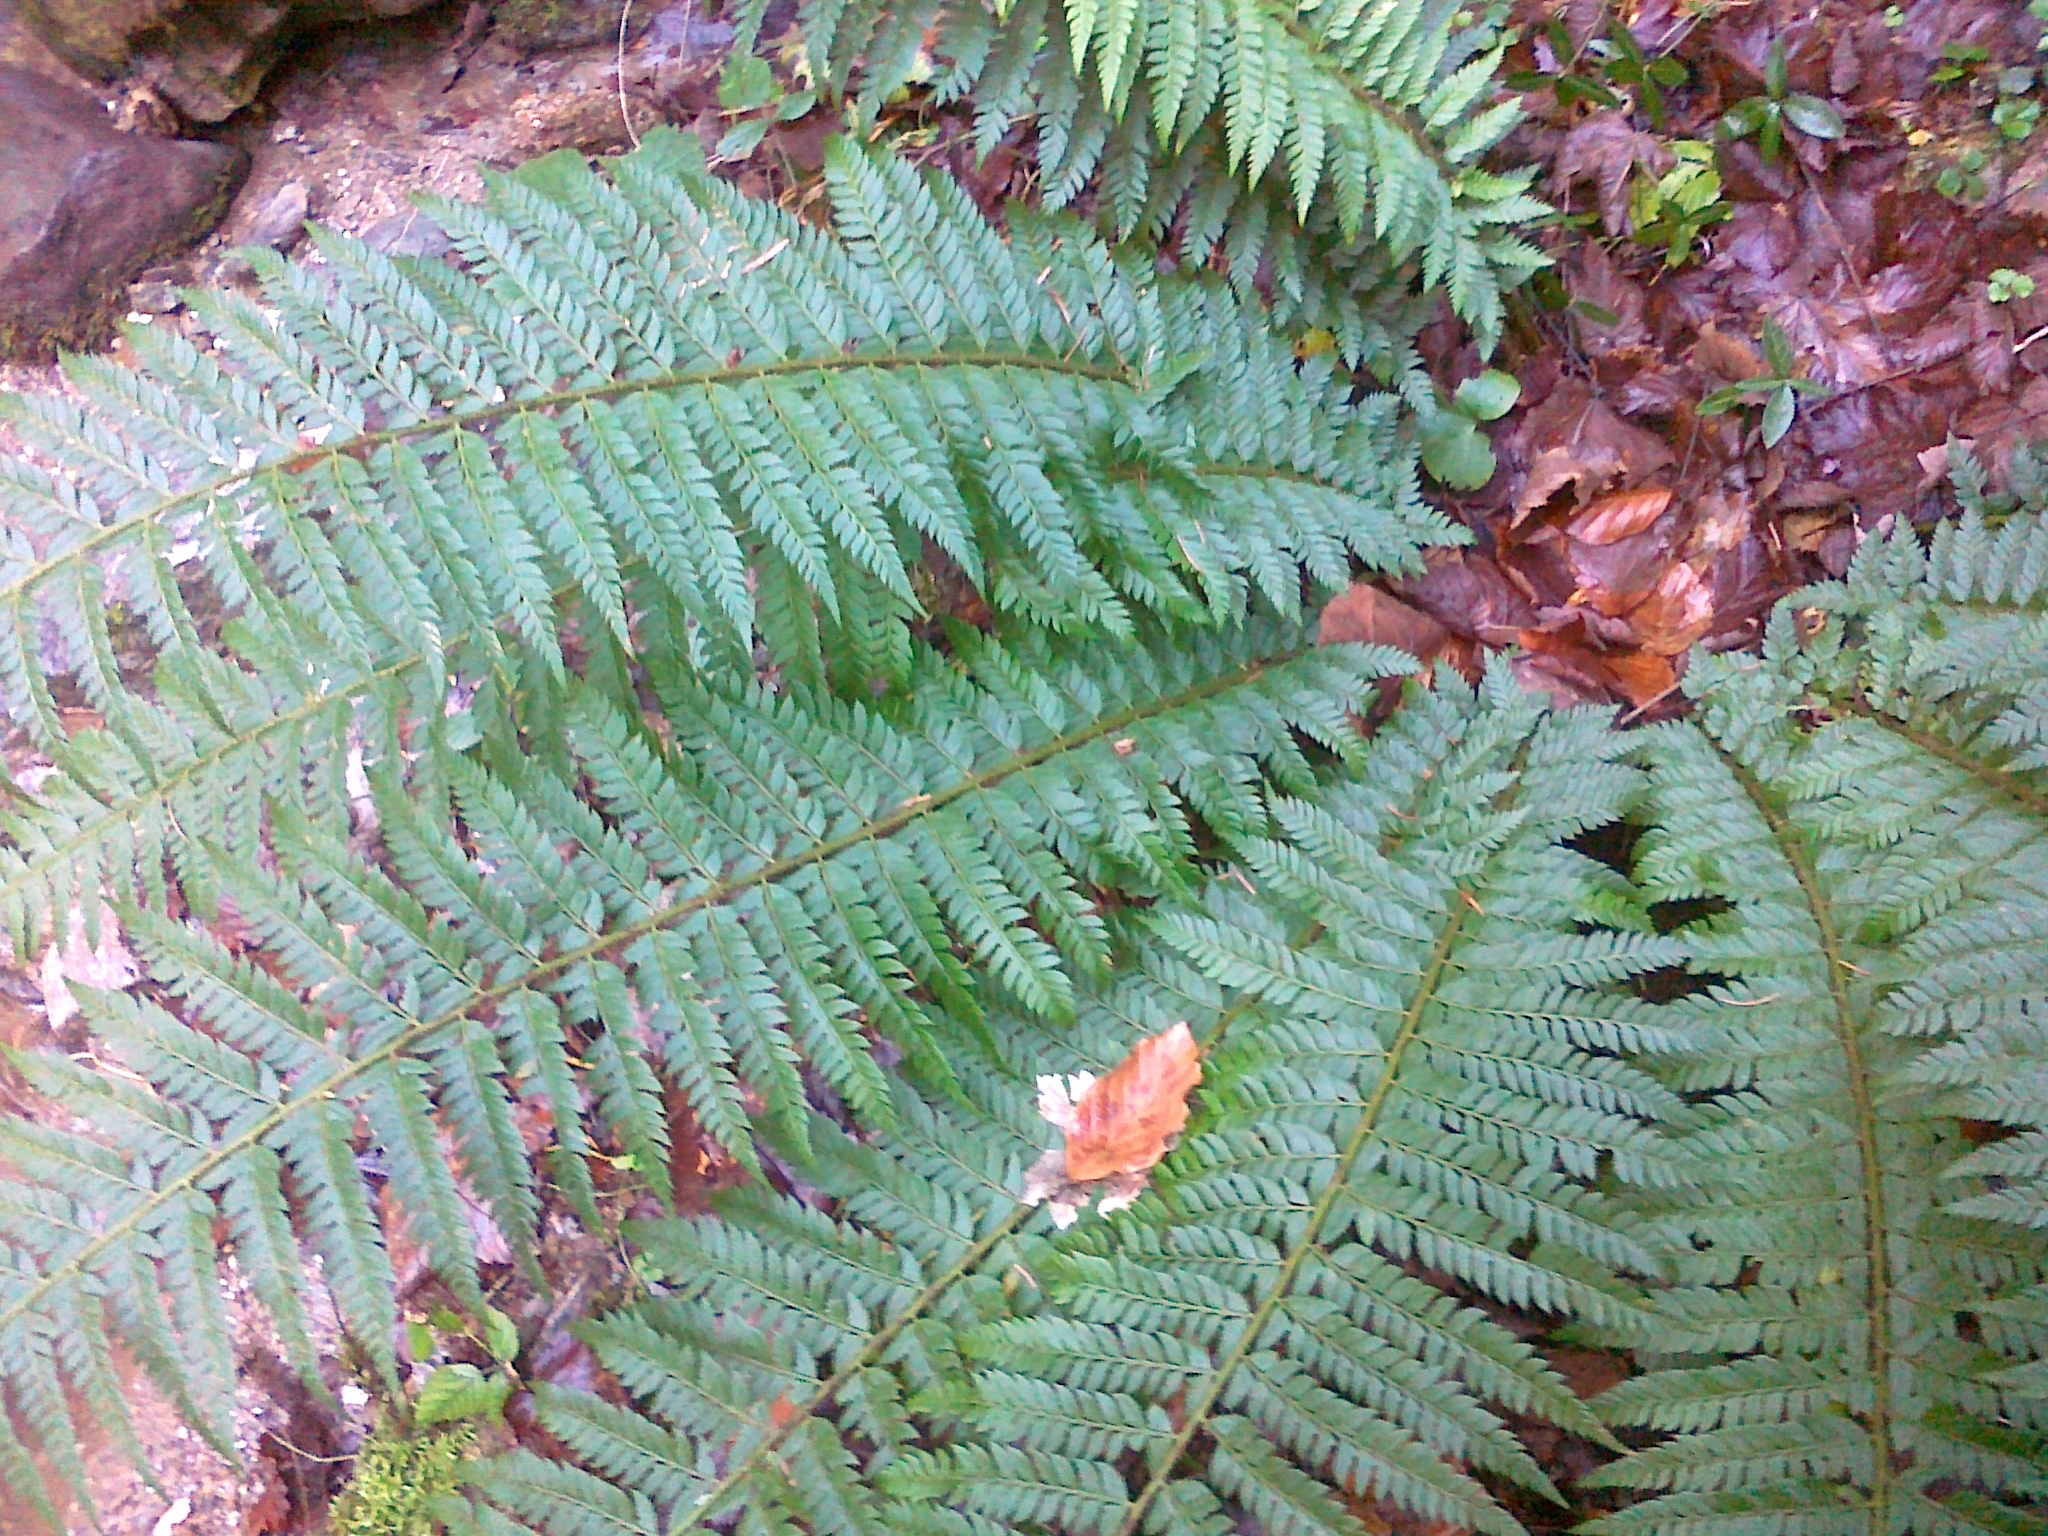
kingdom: Plantae
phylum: Tracheophyta
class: Polypodiopsida
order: Polypodiales
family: Dryopteridaceae
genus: Polystichum
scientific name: Polystichum aculeatum
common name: Hard shield-fern
